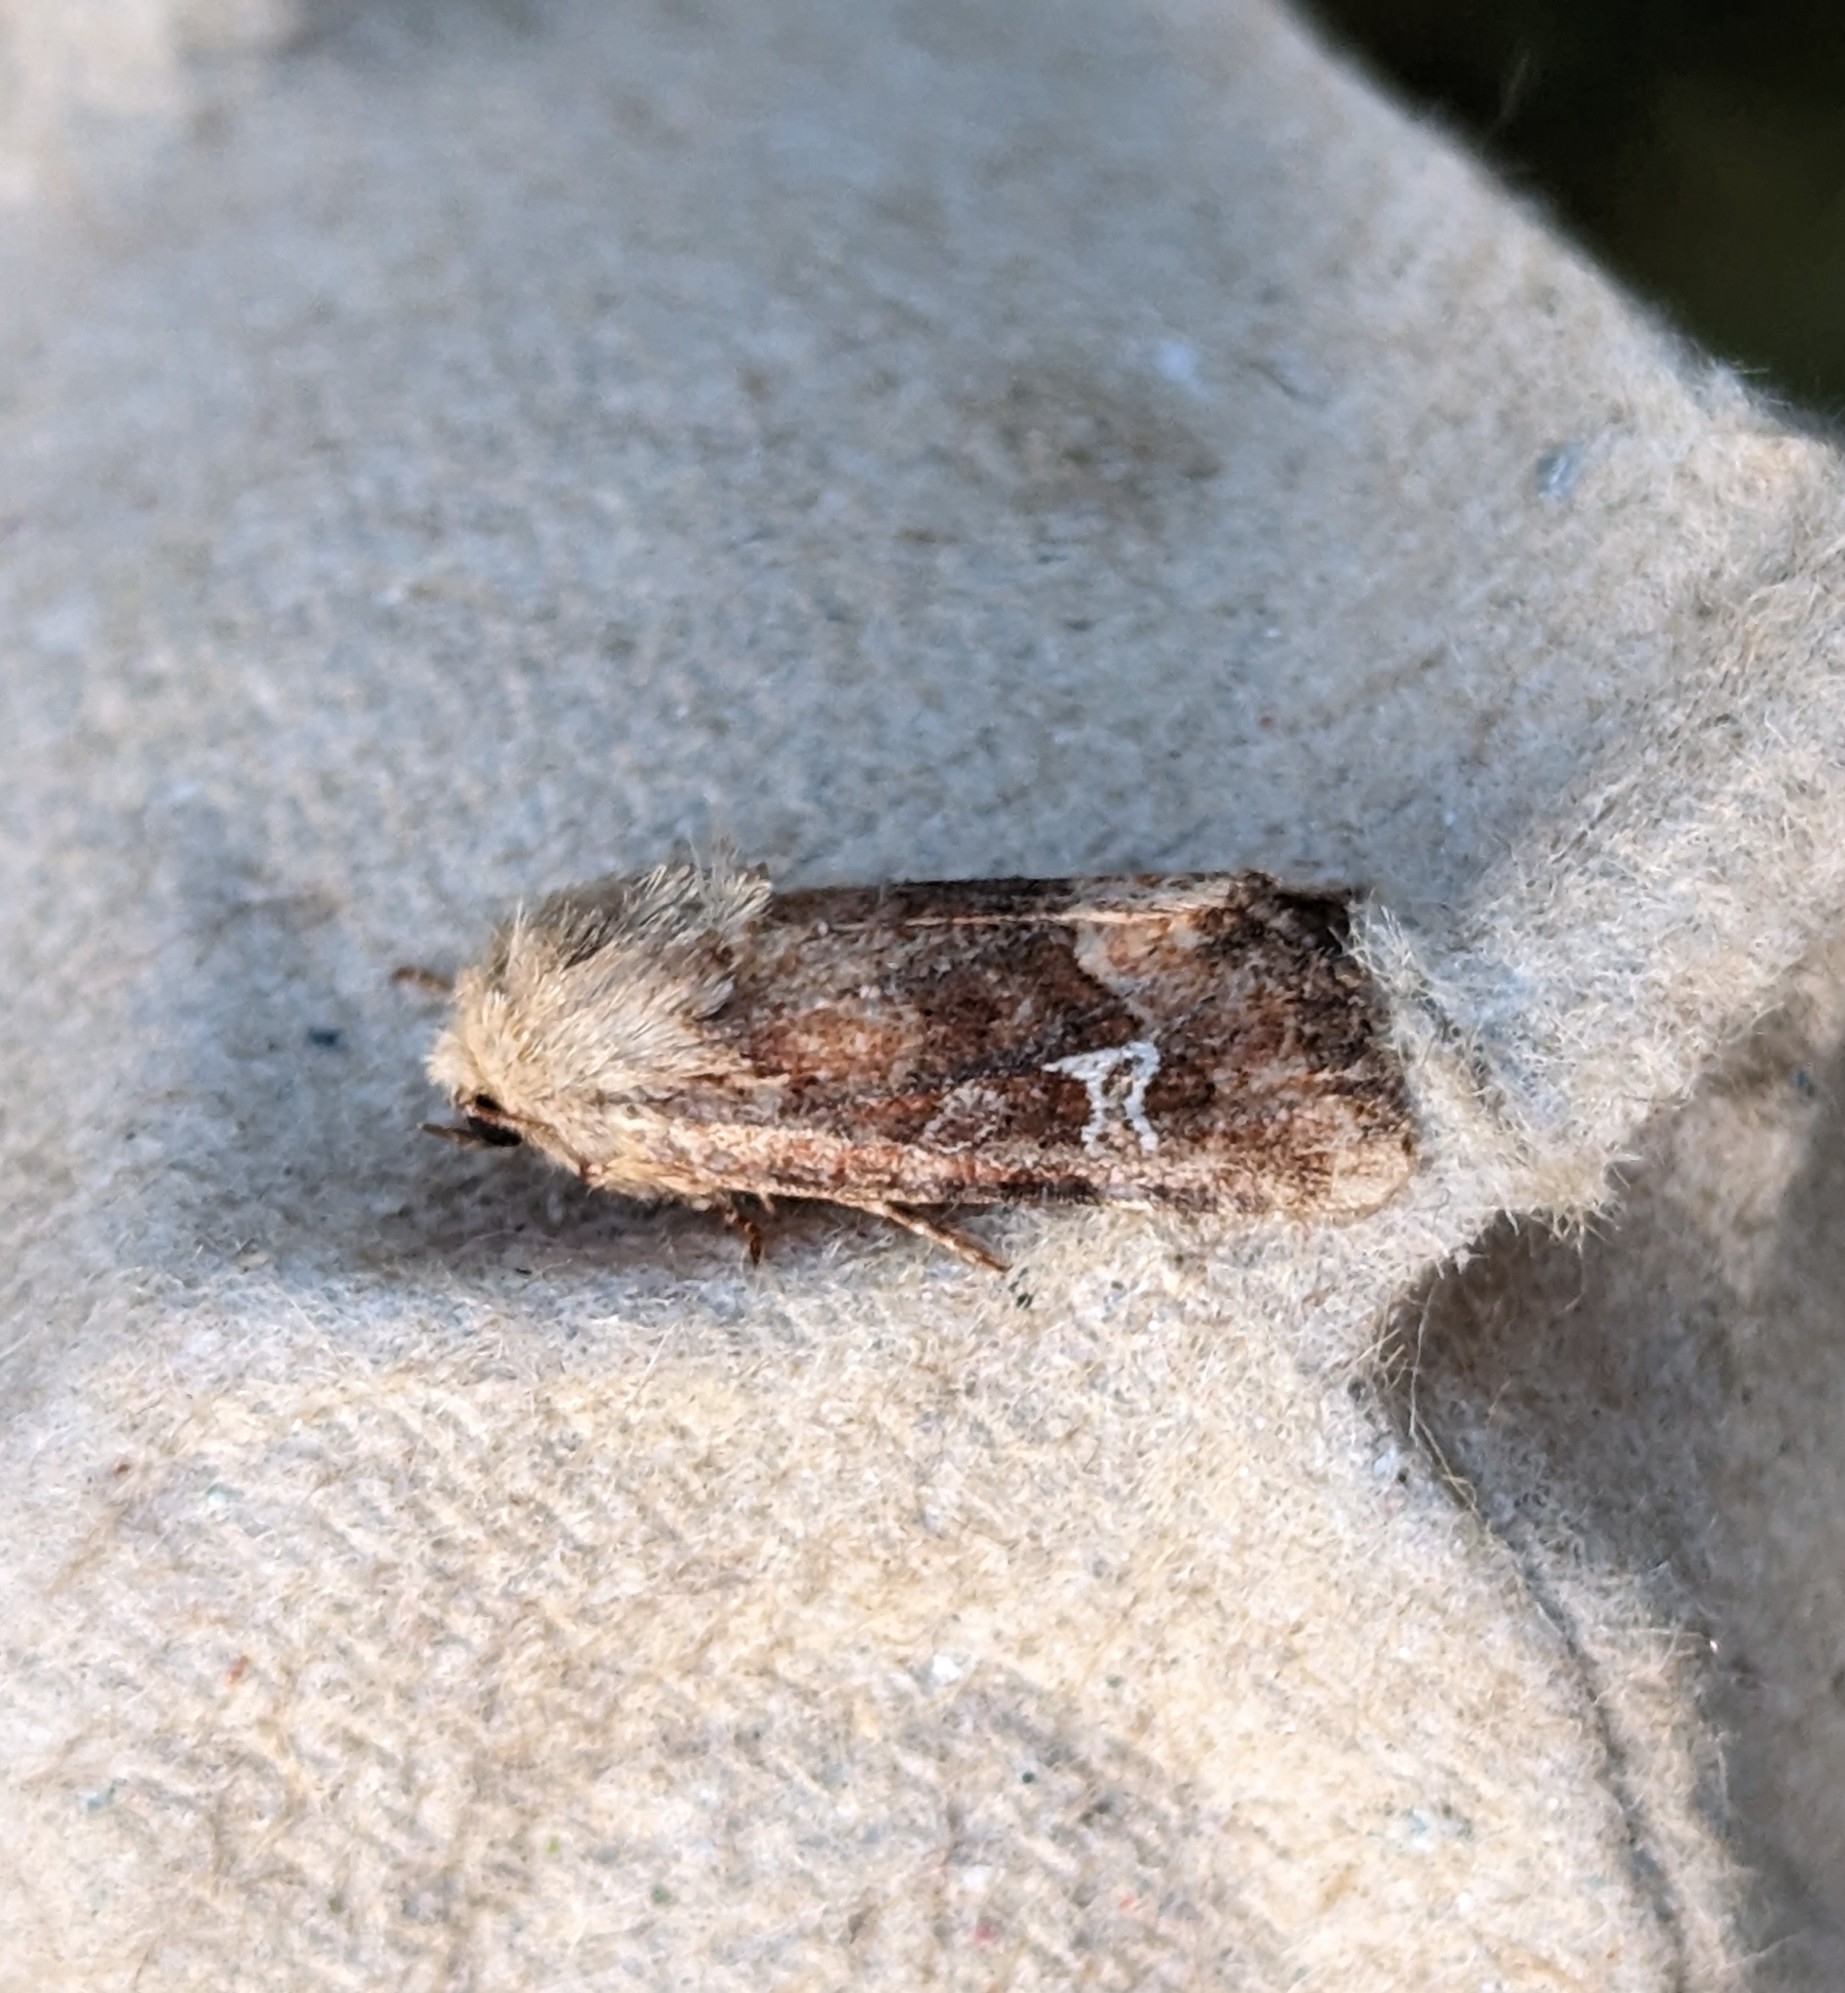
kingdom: Animalia
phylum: Arthropoda
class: Insecta
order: Lepidoptera
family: Noctuidae
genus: Lacinipolia
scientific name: Lacinipolia stricta
